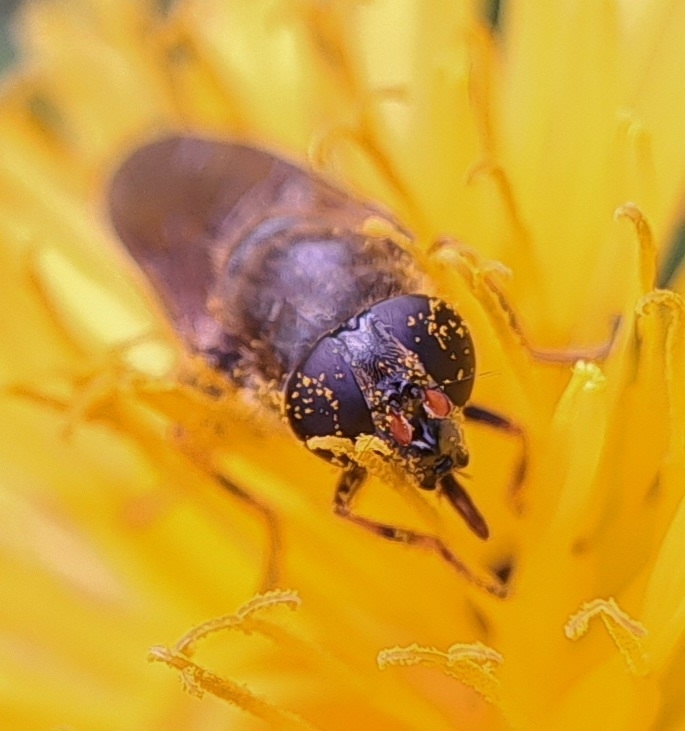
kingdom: Animalia
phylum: Arthropoda
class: Insecta
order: Diptera
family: Syrphidae
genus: Cheilosia
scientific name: Cheilosia
